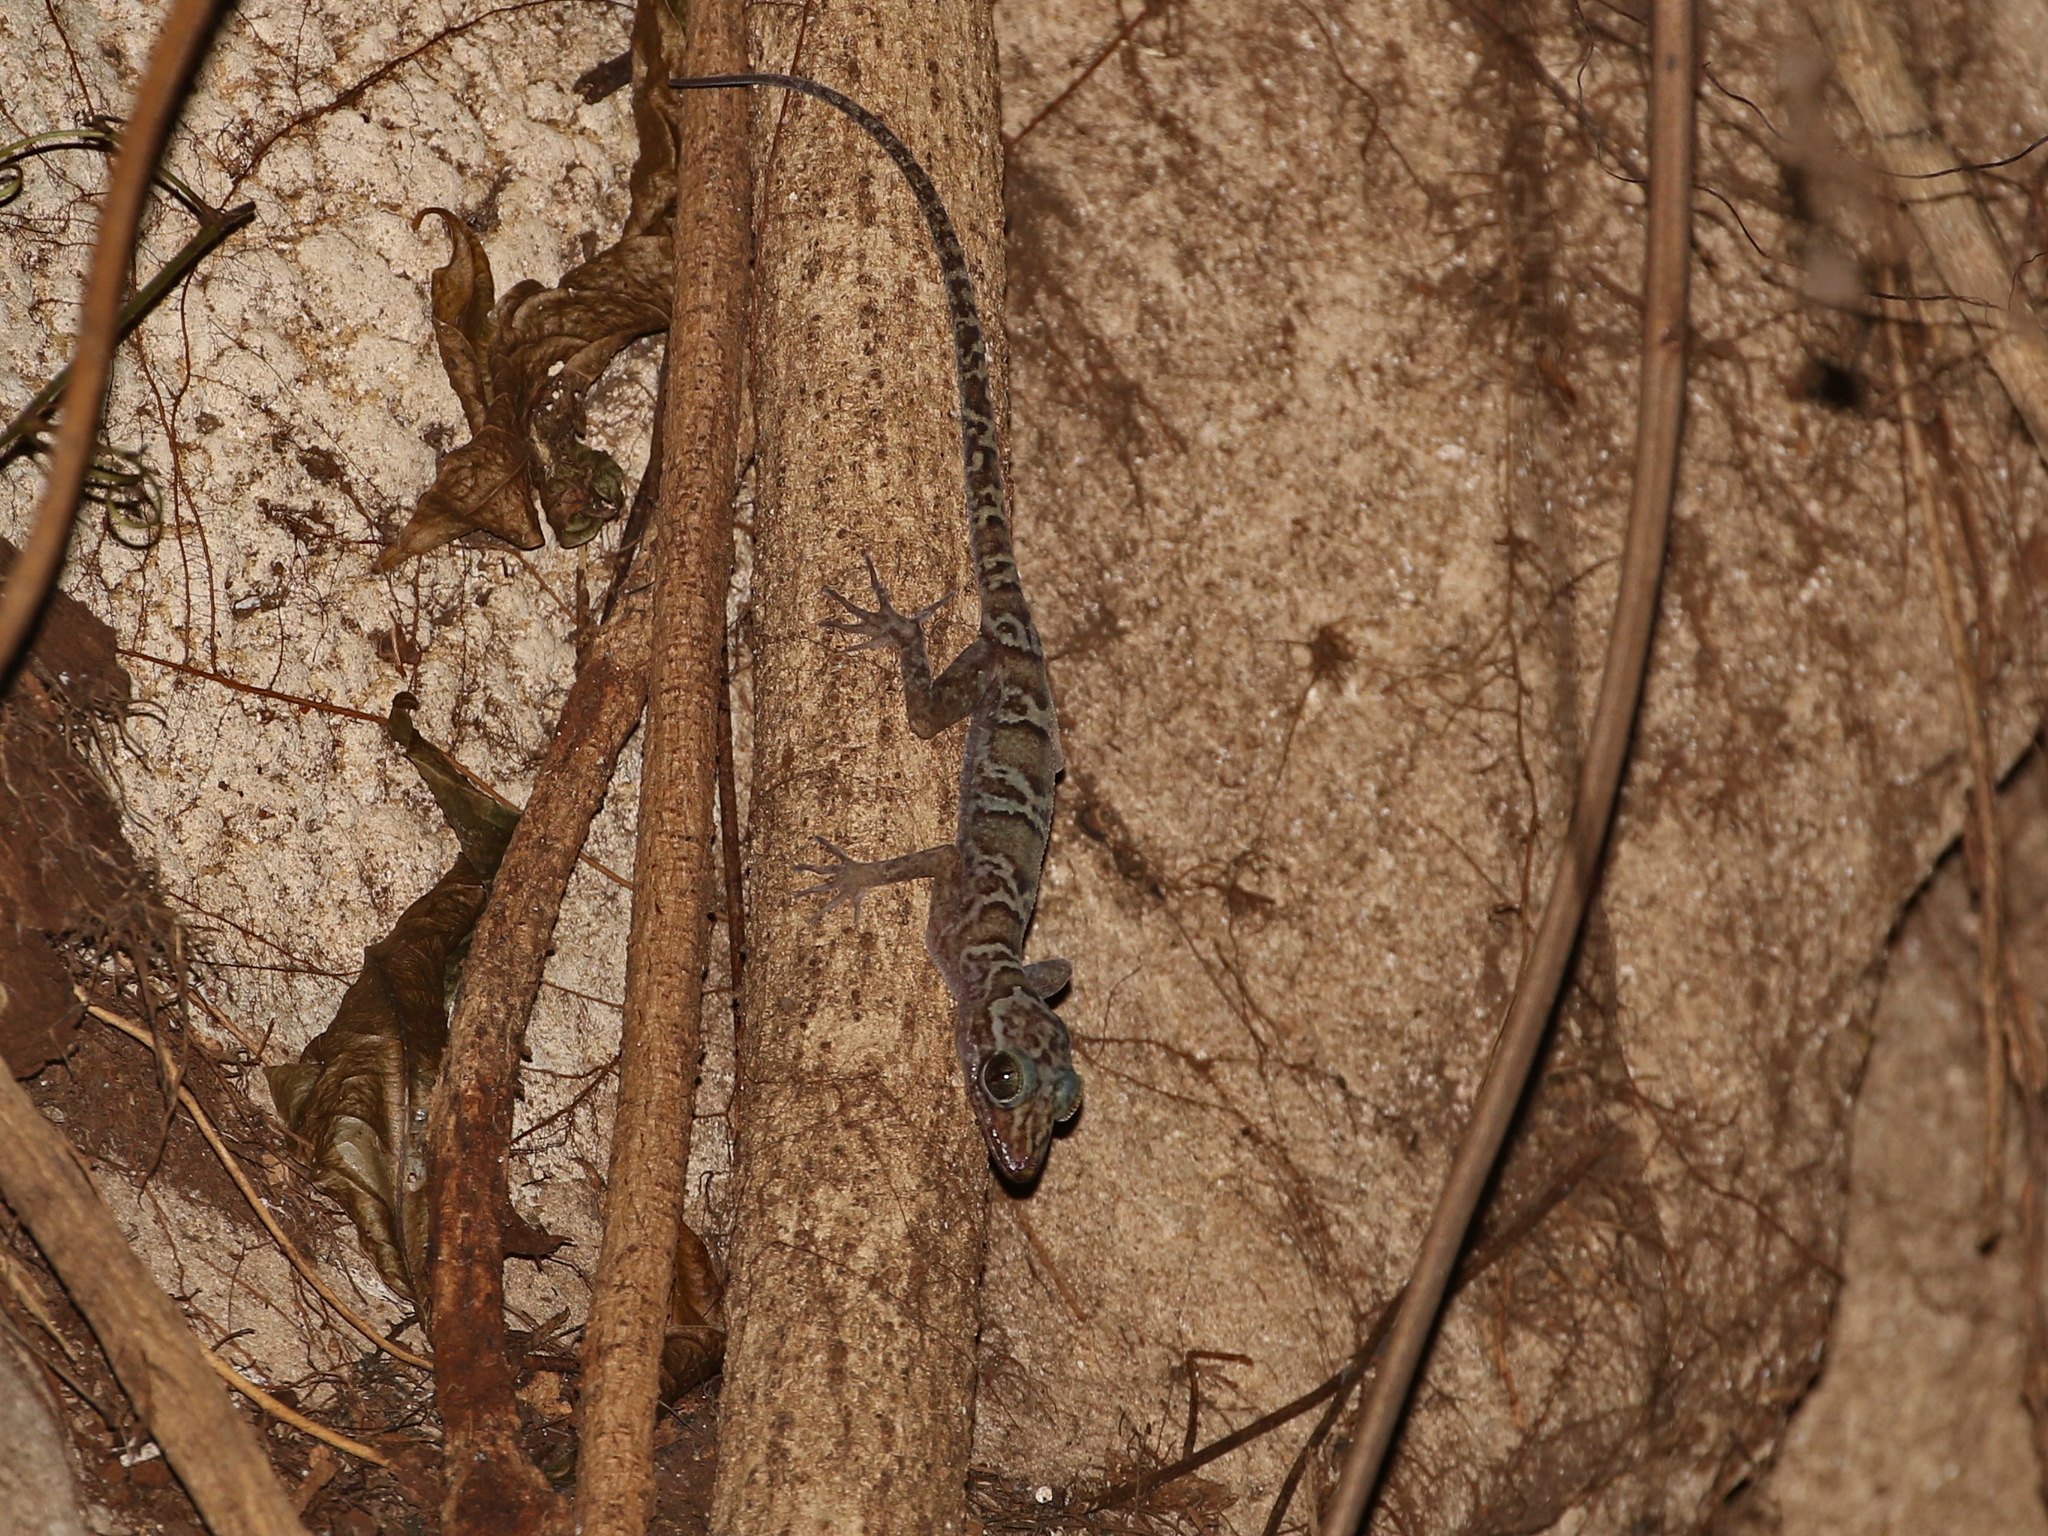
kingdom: Animalia
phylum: Chordata
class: Squamata
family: Gekkonidae
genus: Cyrtodactylus
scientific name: Cyrtodactylus sumonthai
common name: Sumontha's gecko
